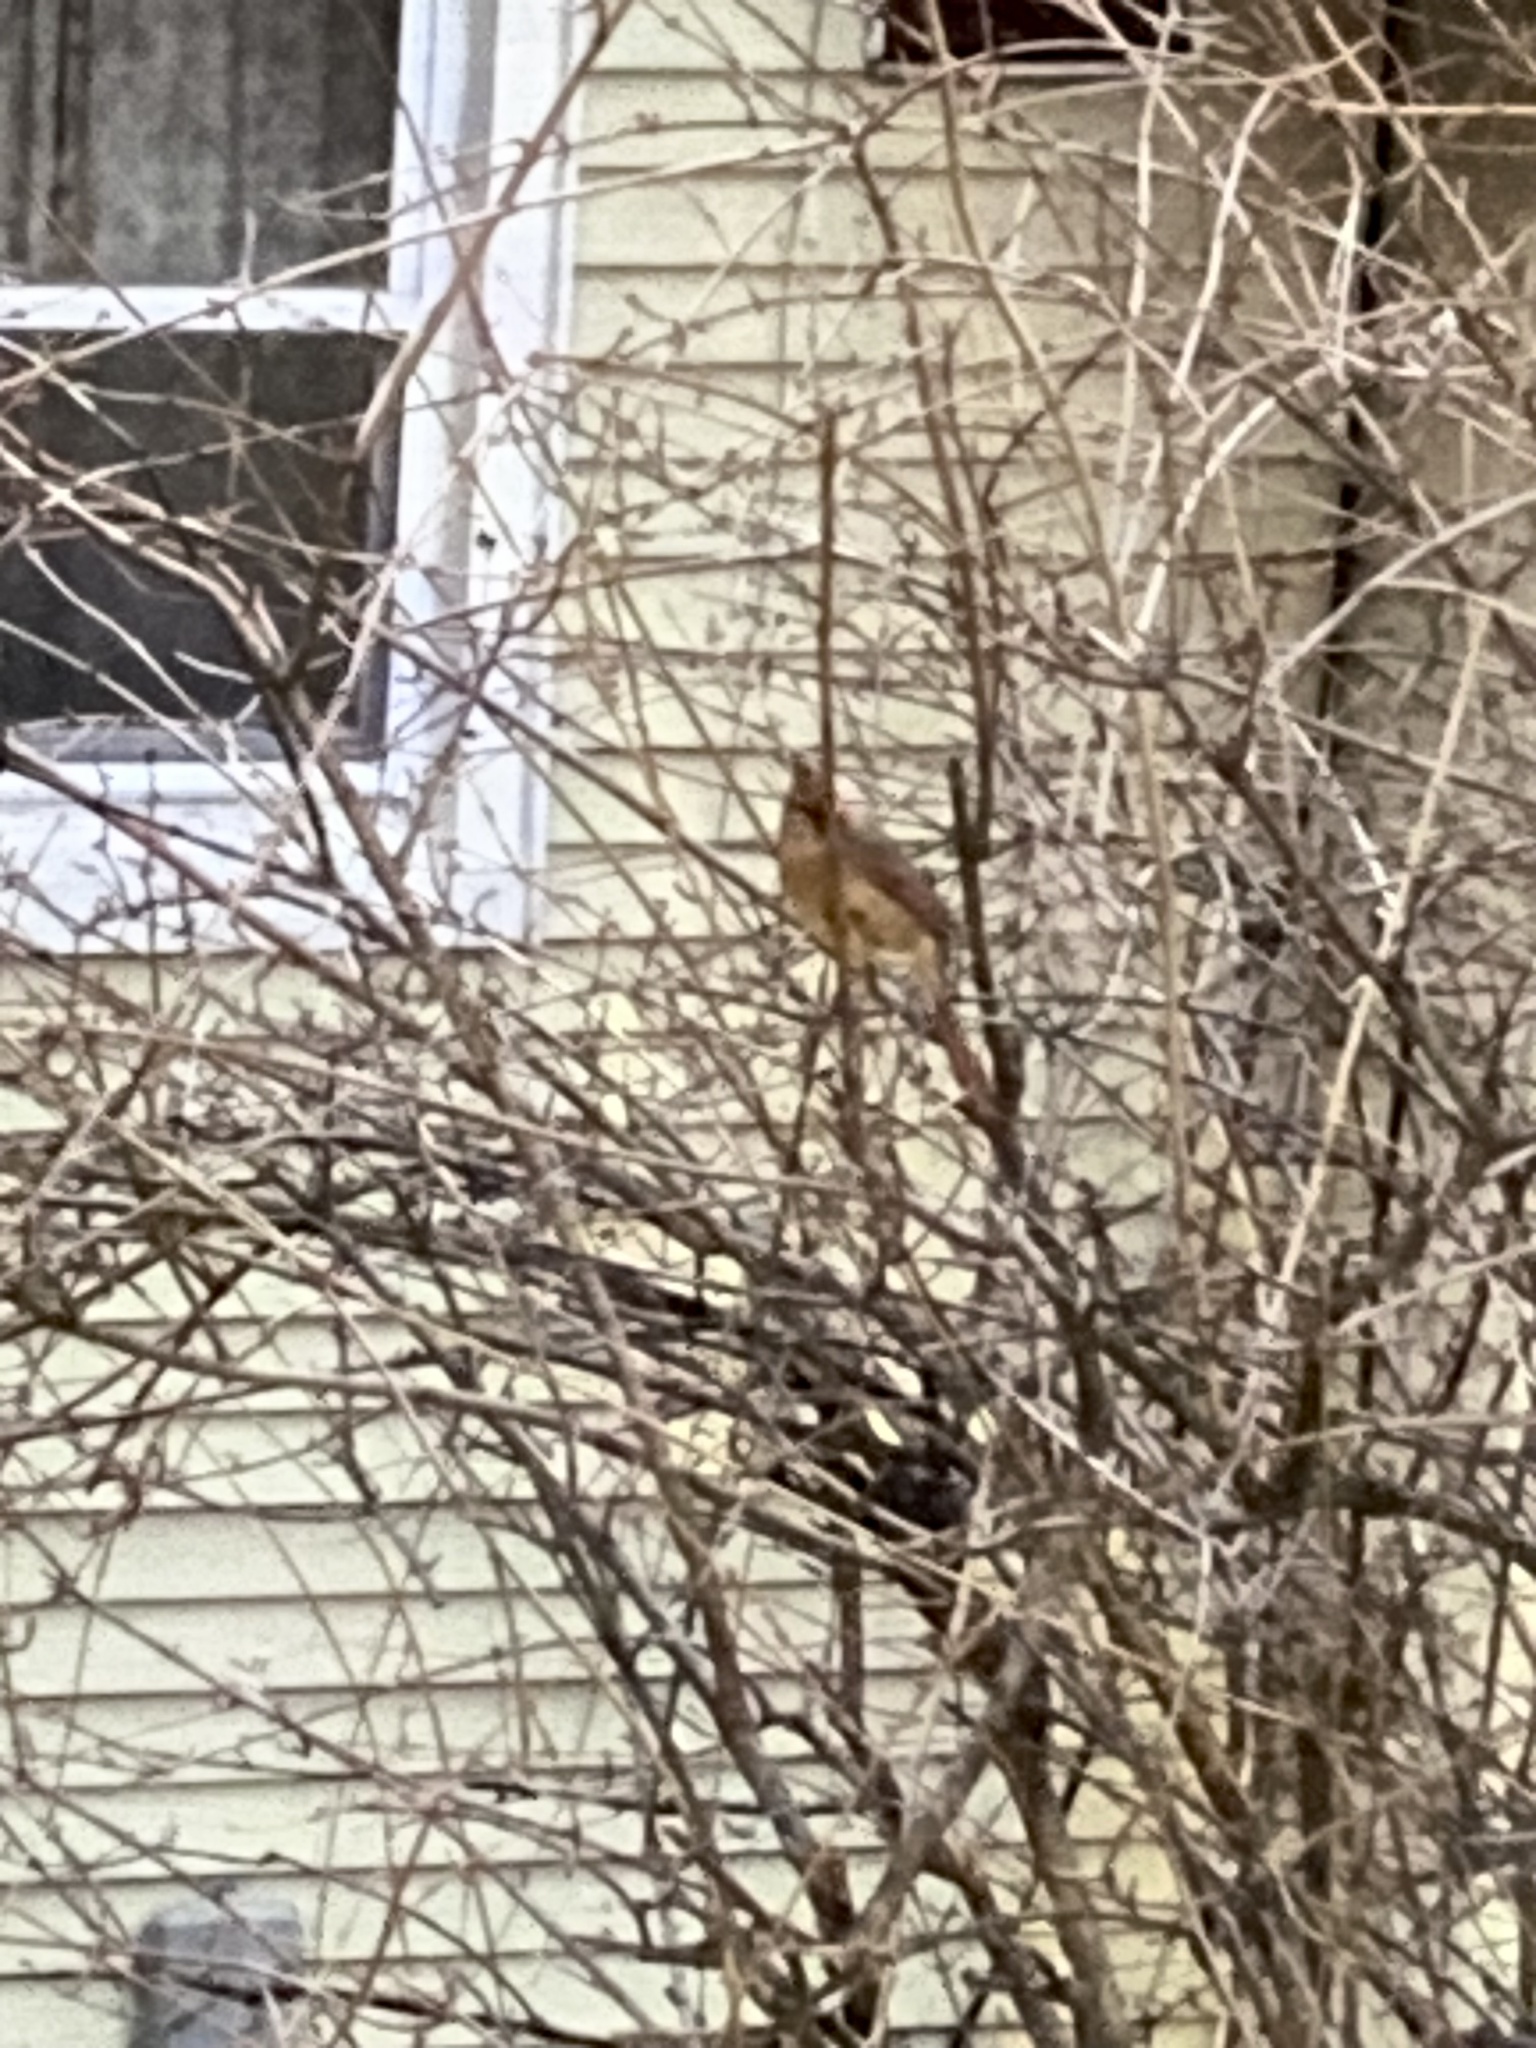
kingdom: Animalia
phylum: Chordata
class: Aves
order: Passeriformes
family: Cardinalidae
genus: Cardinalis
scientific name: Cardinalis cardinalis
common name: Northern cardinal
